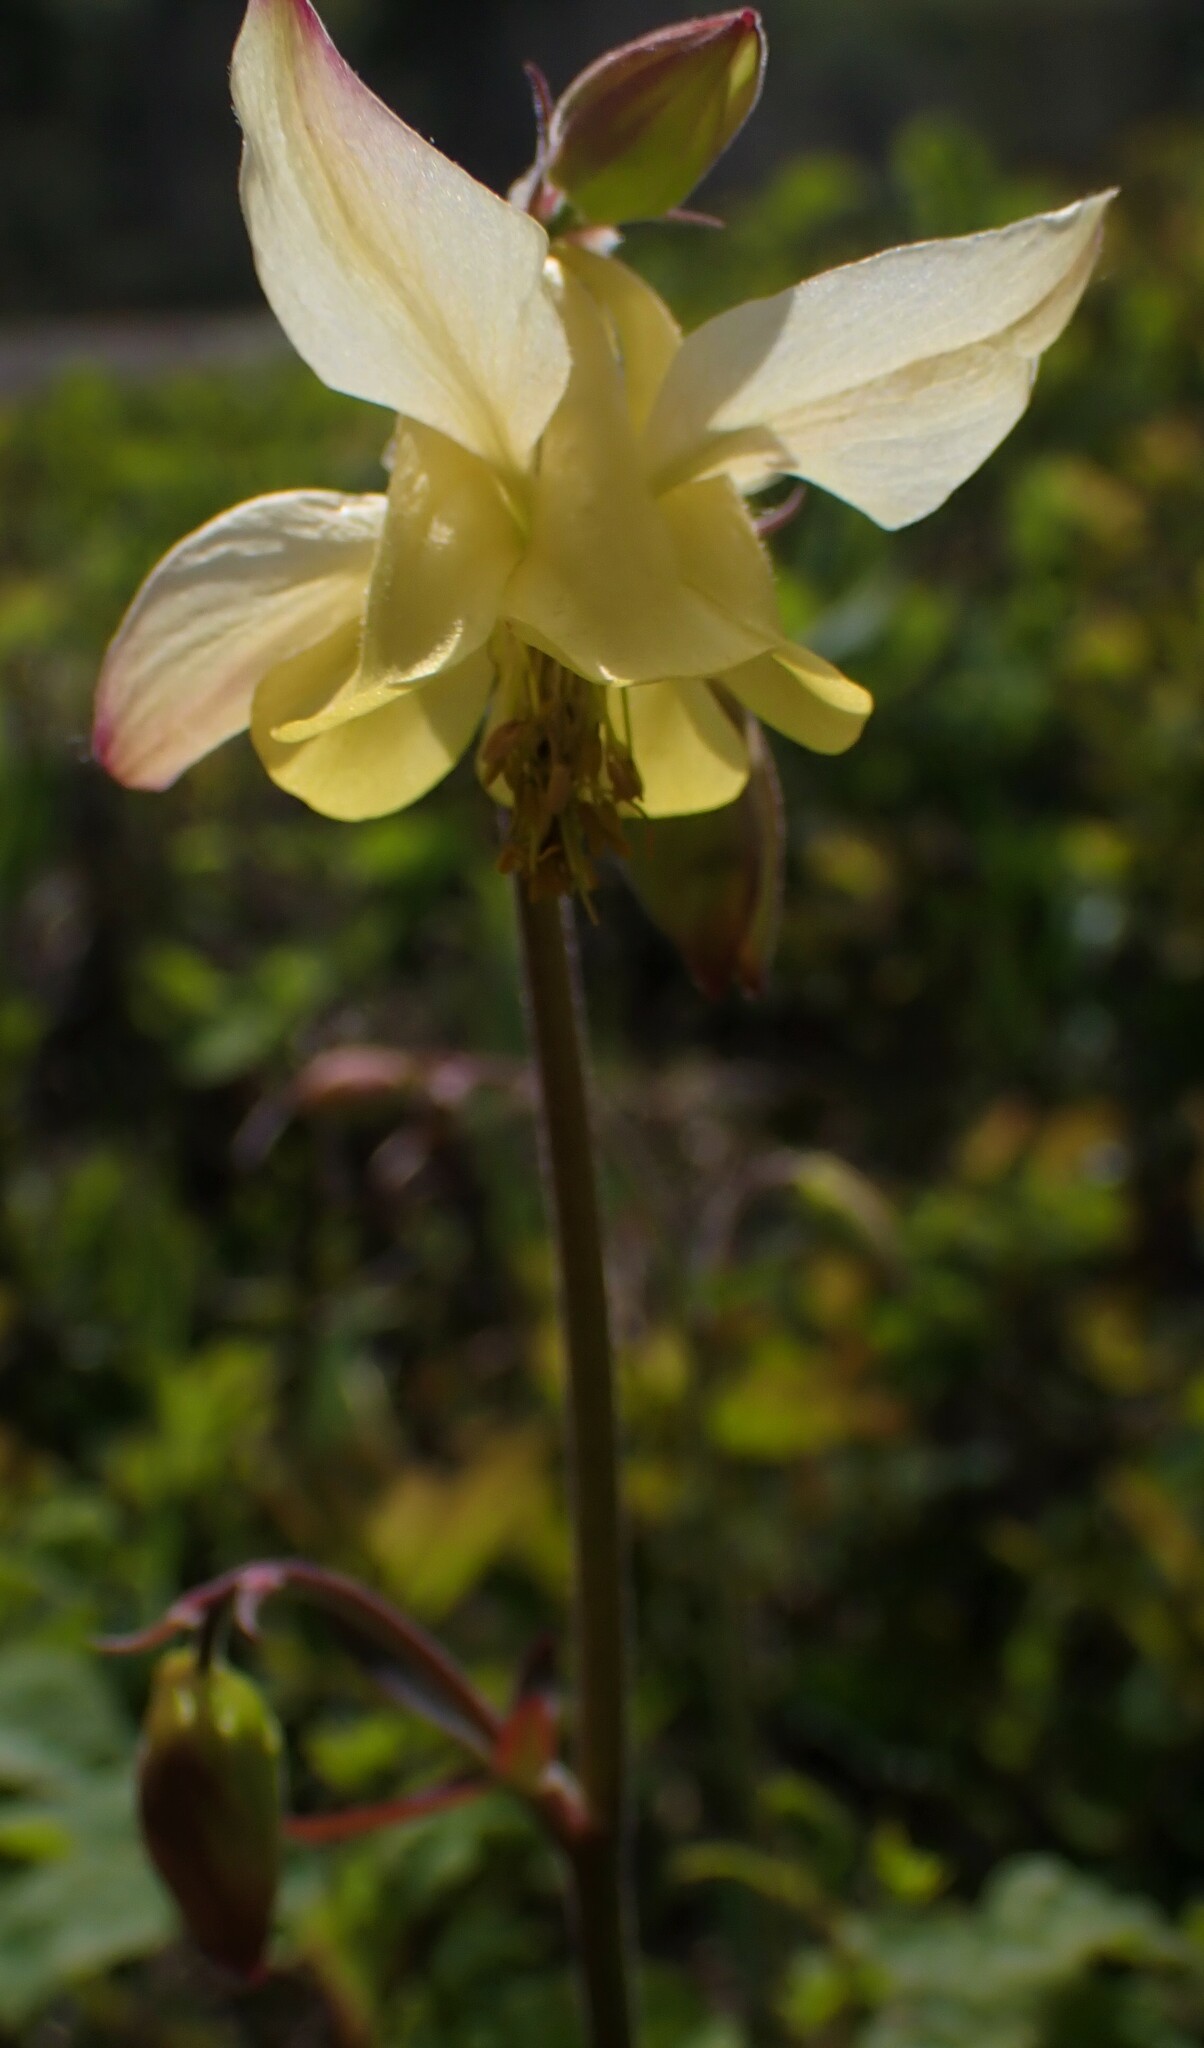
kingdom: Plantae
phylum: Tracheophyta
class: Magnoliopsida
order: Ranunculales
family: Ranunculaceae
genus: Aquilegia
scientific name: Aquilegia flavescens
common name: Yellow columbine
